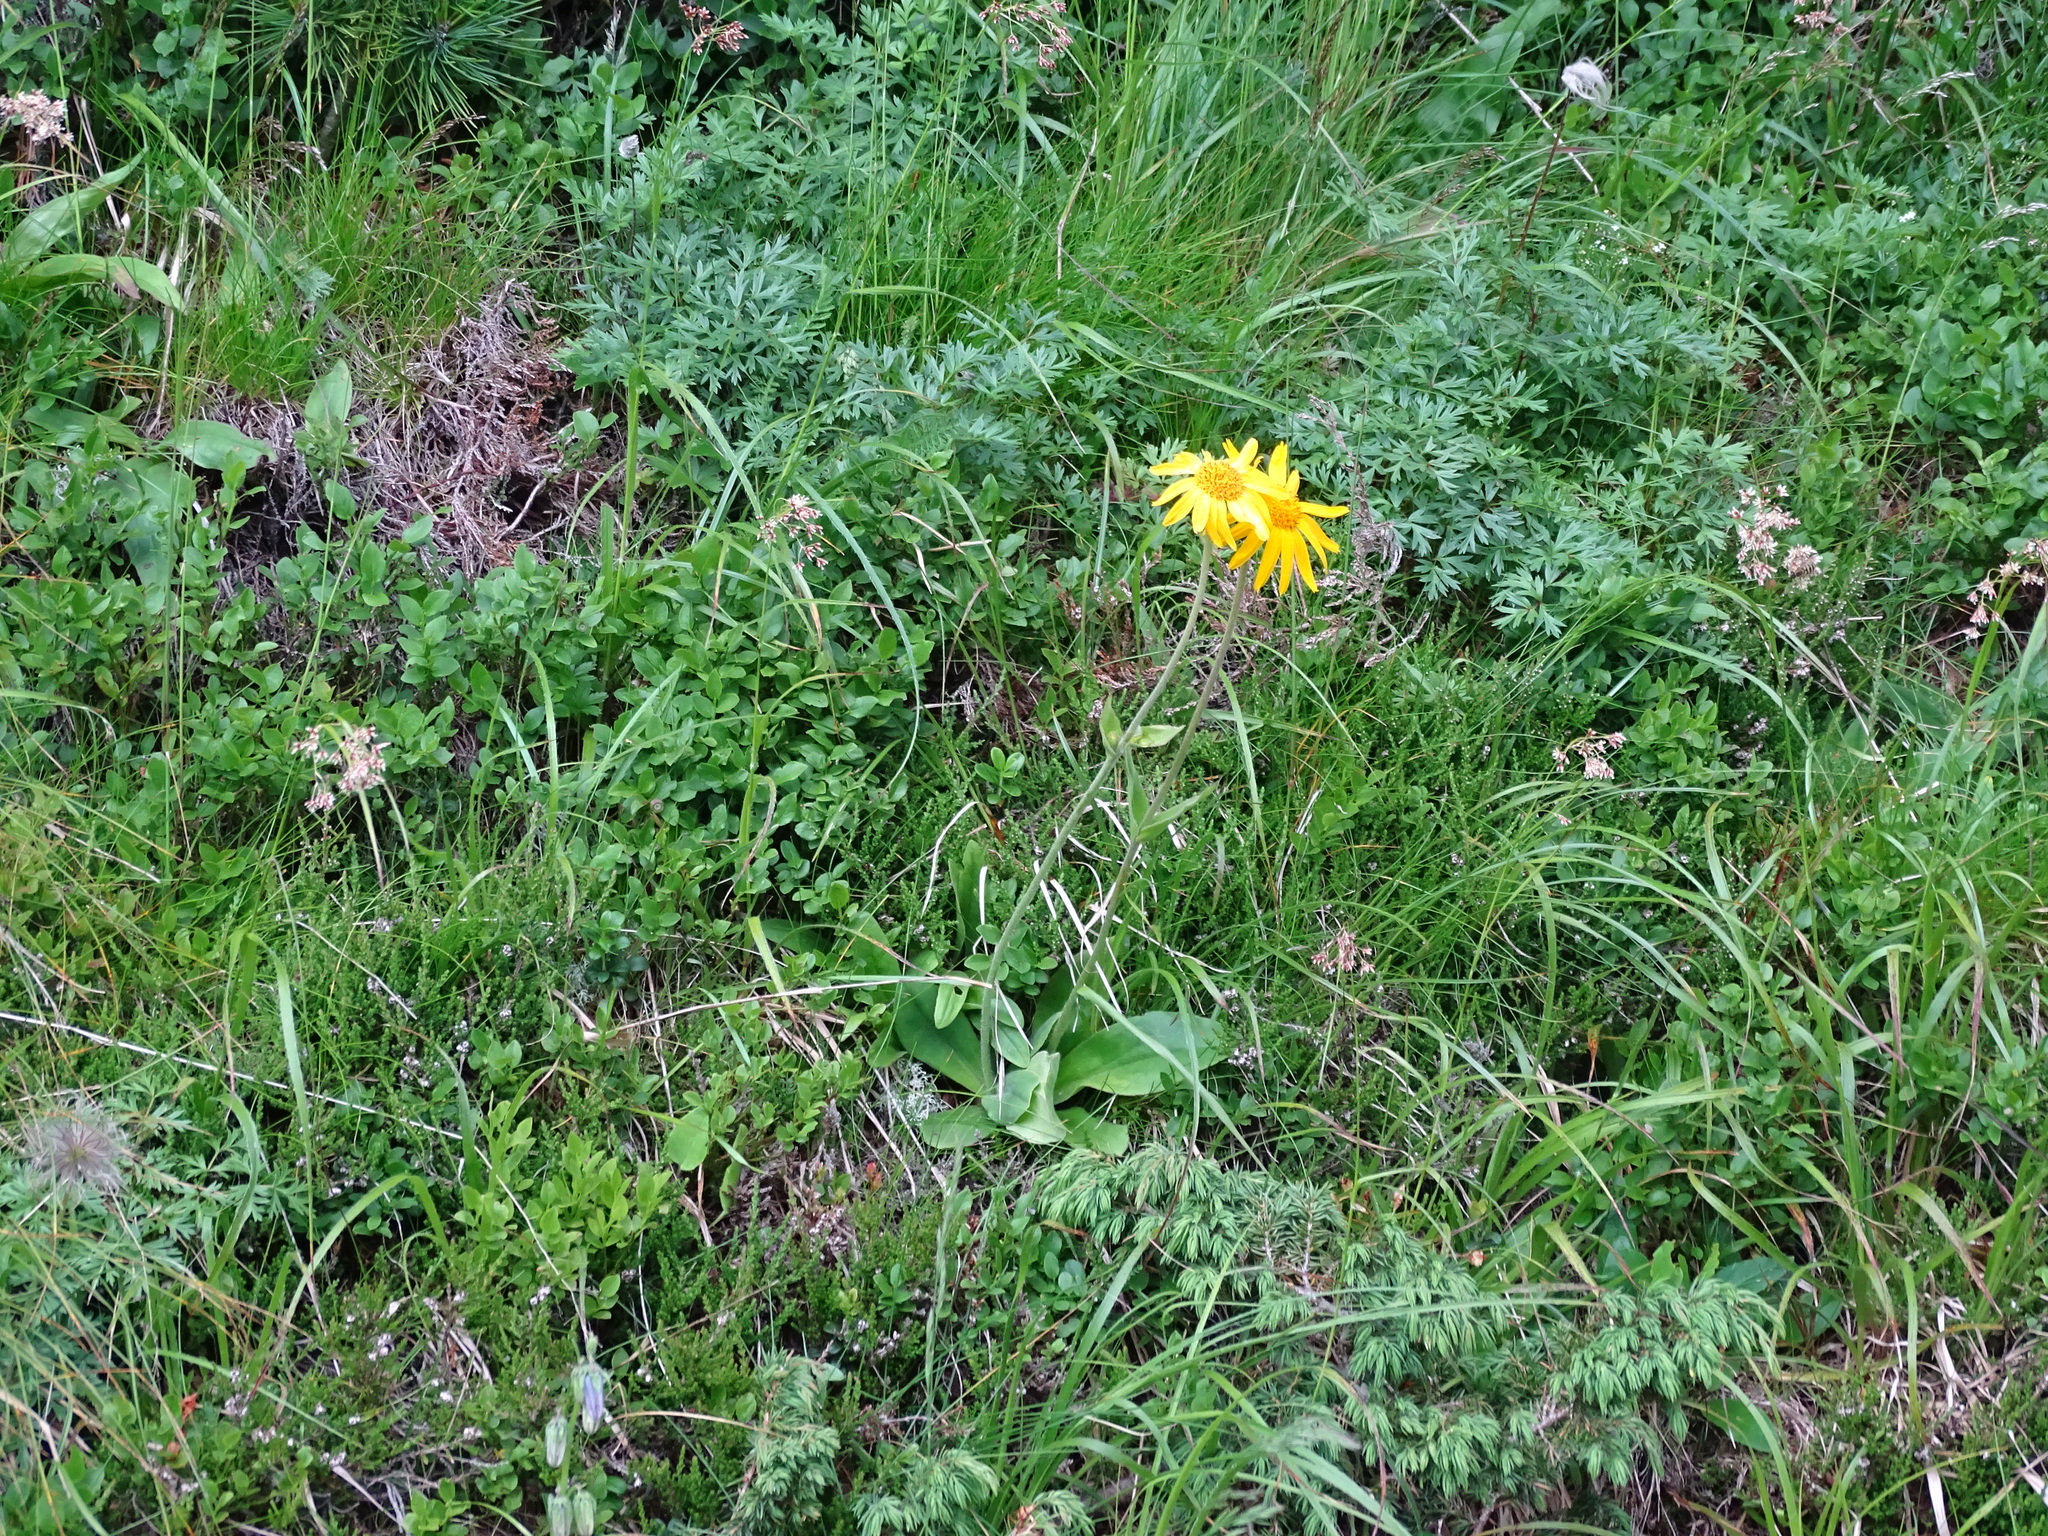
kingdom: Plantae
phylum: Tracheophyta
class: Magnoliopsida
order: Asterales
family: Asteraceae
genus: Arnica
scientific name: Arnica montana
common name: Leopard's bane
